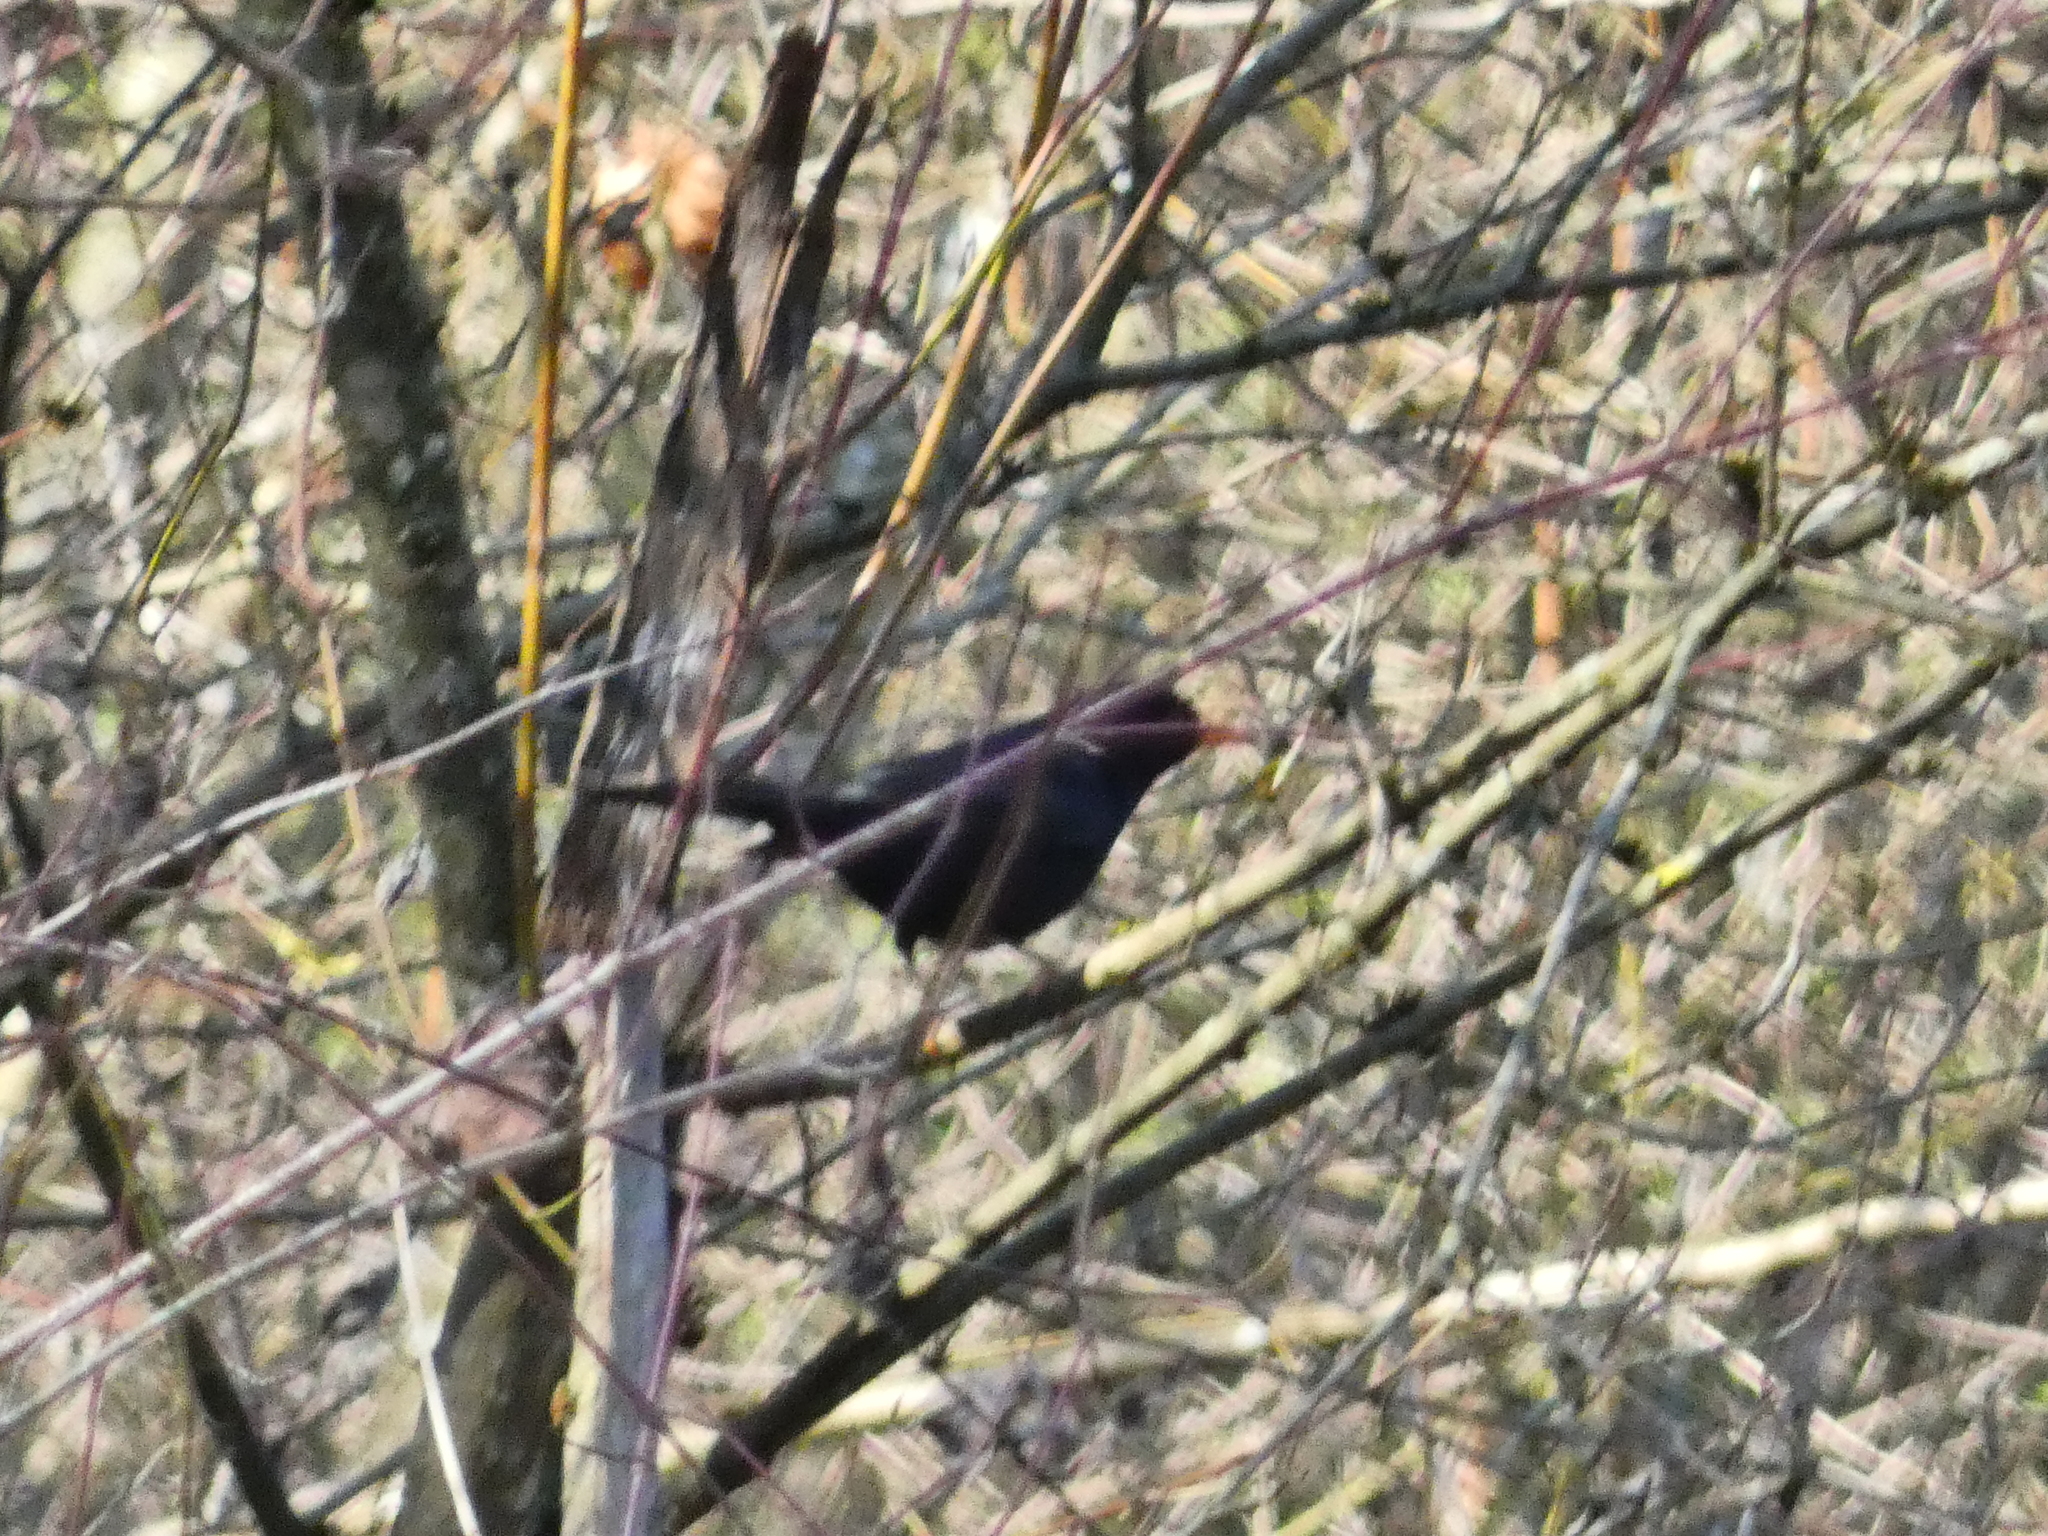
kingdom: Animalia
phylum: Chordata
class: Aves
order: Passeriformes
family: Turdidae
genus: Turdus
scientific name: Turdus merula
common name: Common blackbird
